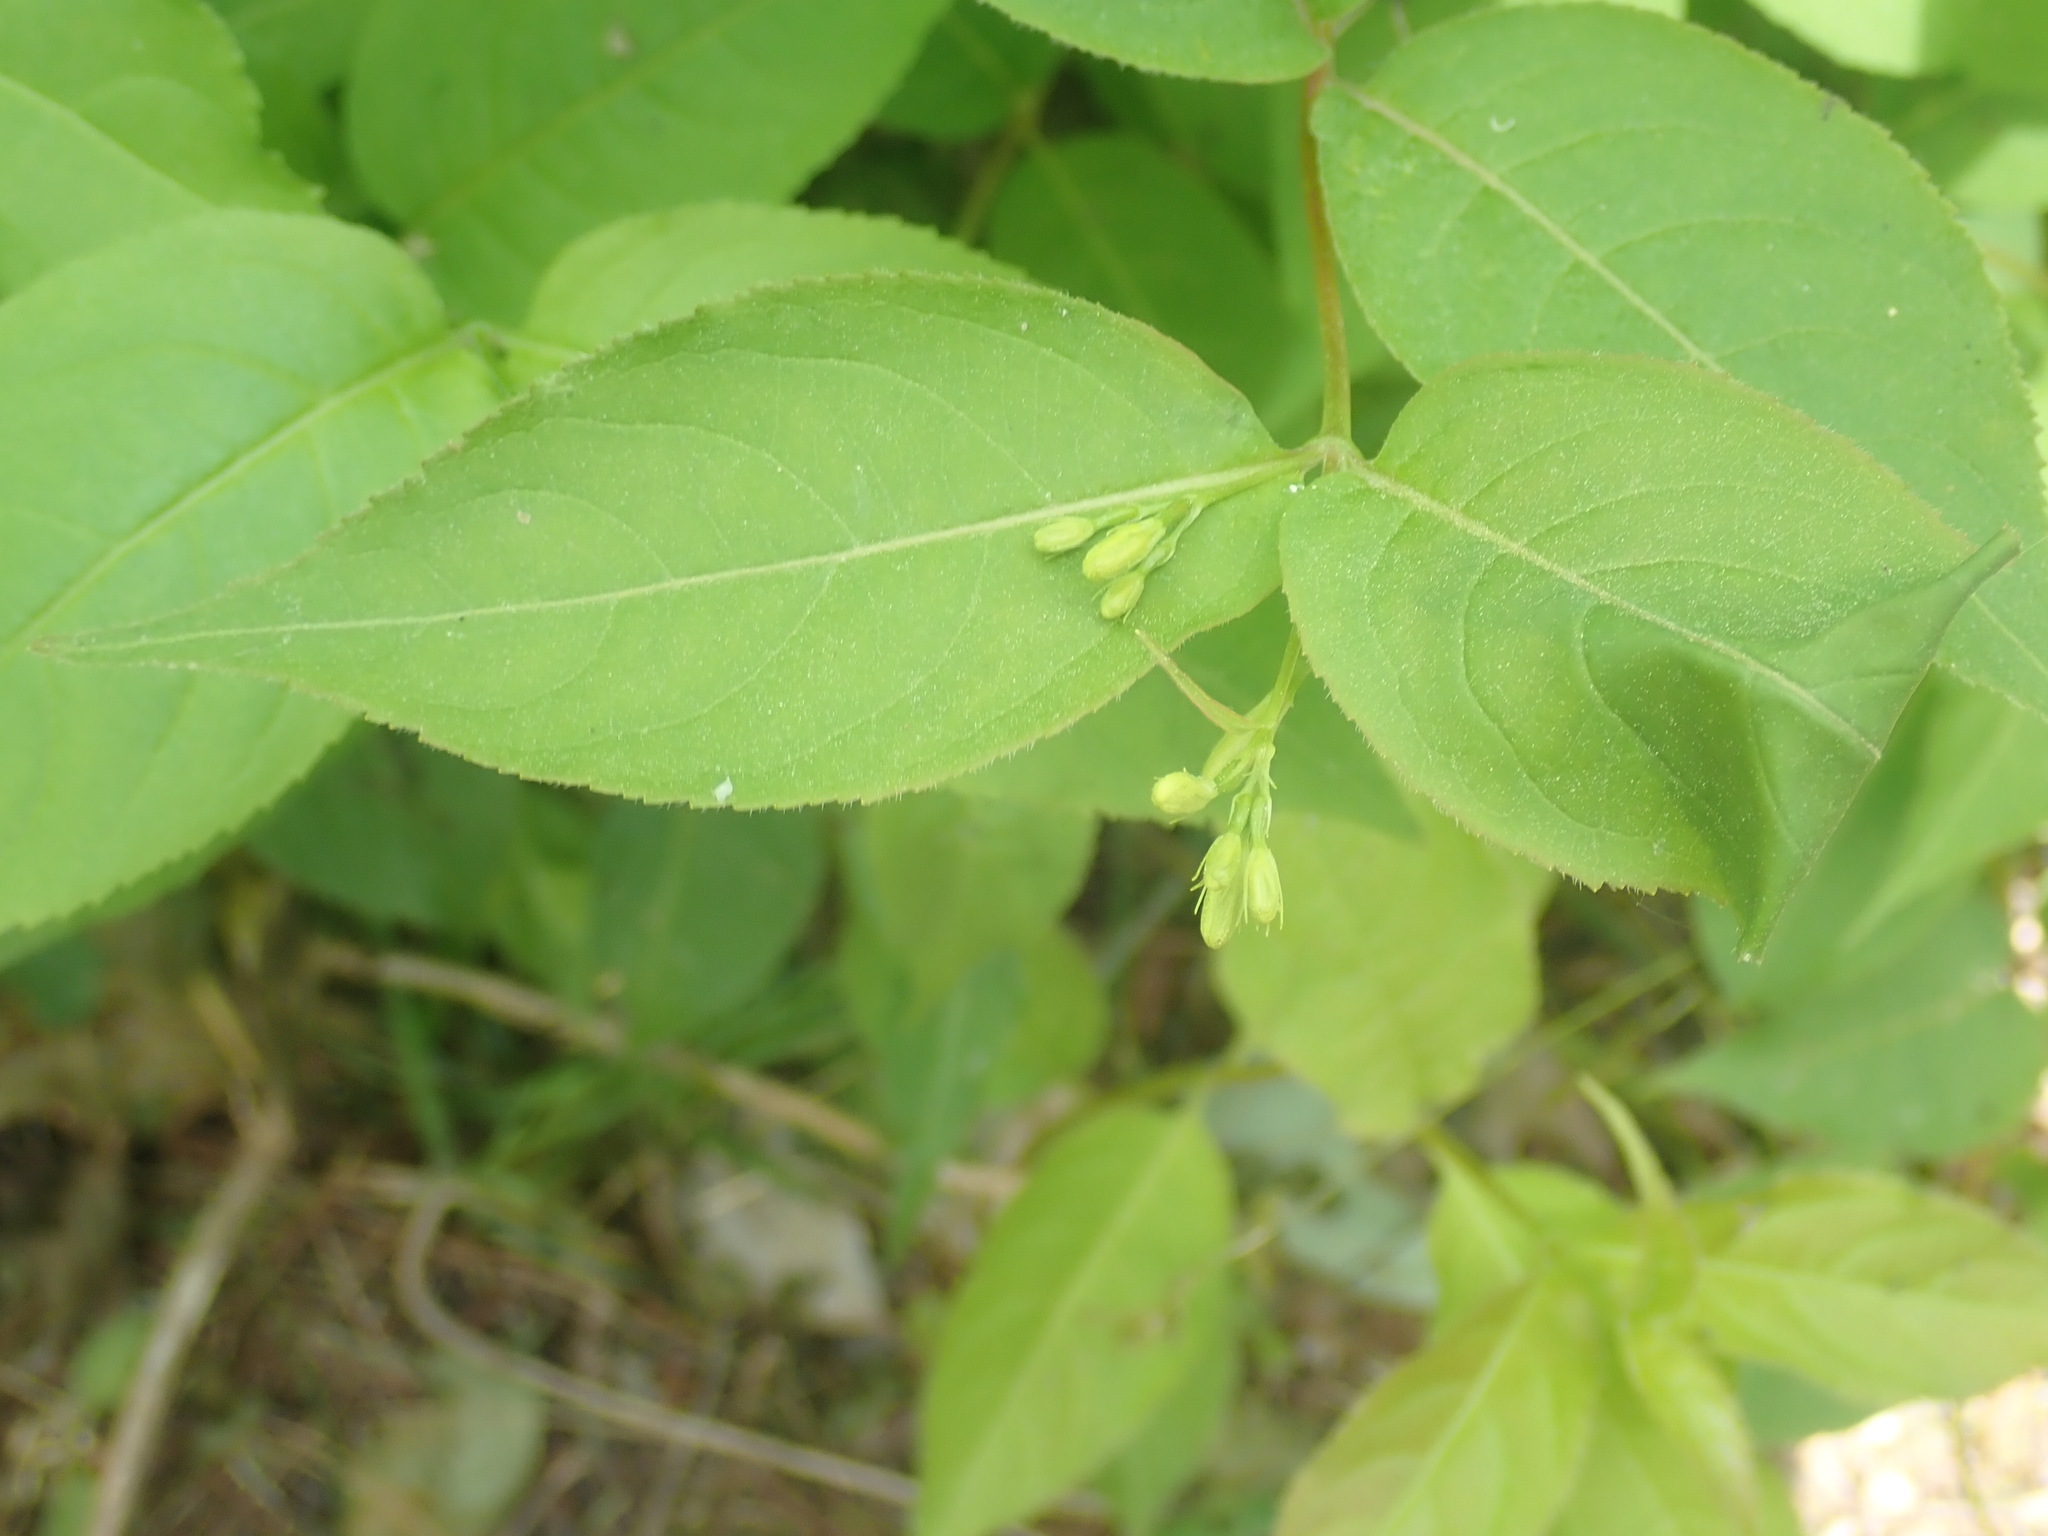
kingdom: Plantae
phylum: Tracheophyta
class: Magnoliopsida
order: Dipsacales
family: Caprifoliaceae
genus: Diervilla
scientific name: Diervilla lonicera
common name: Bush-honeysuckle
